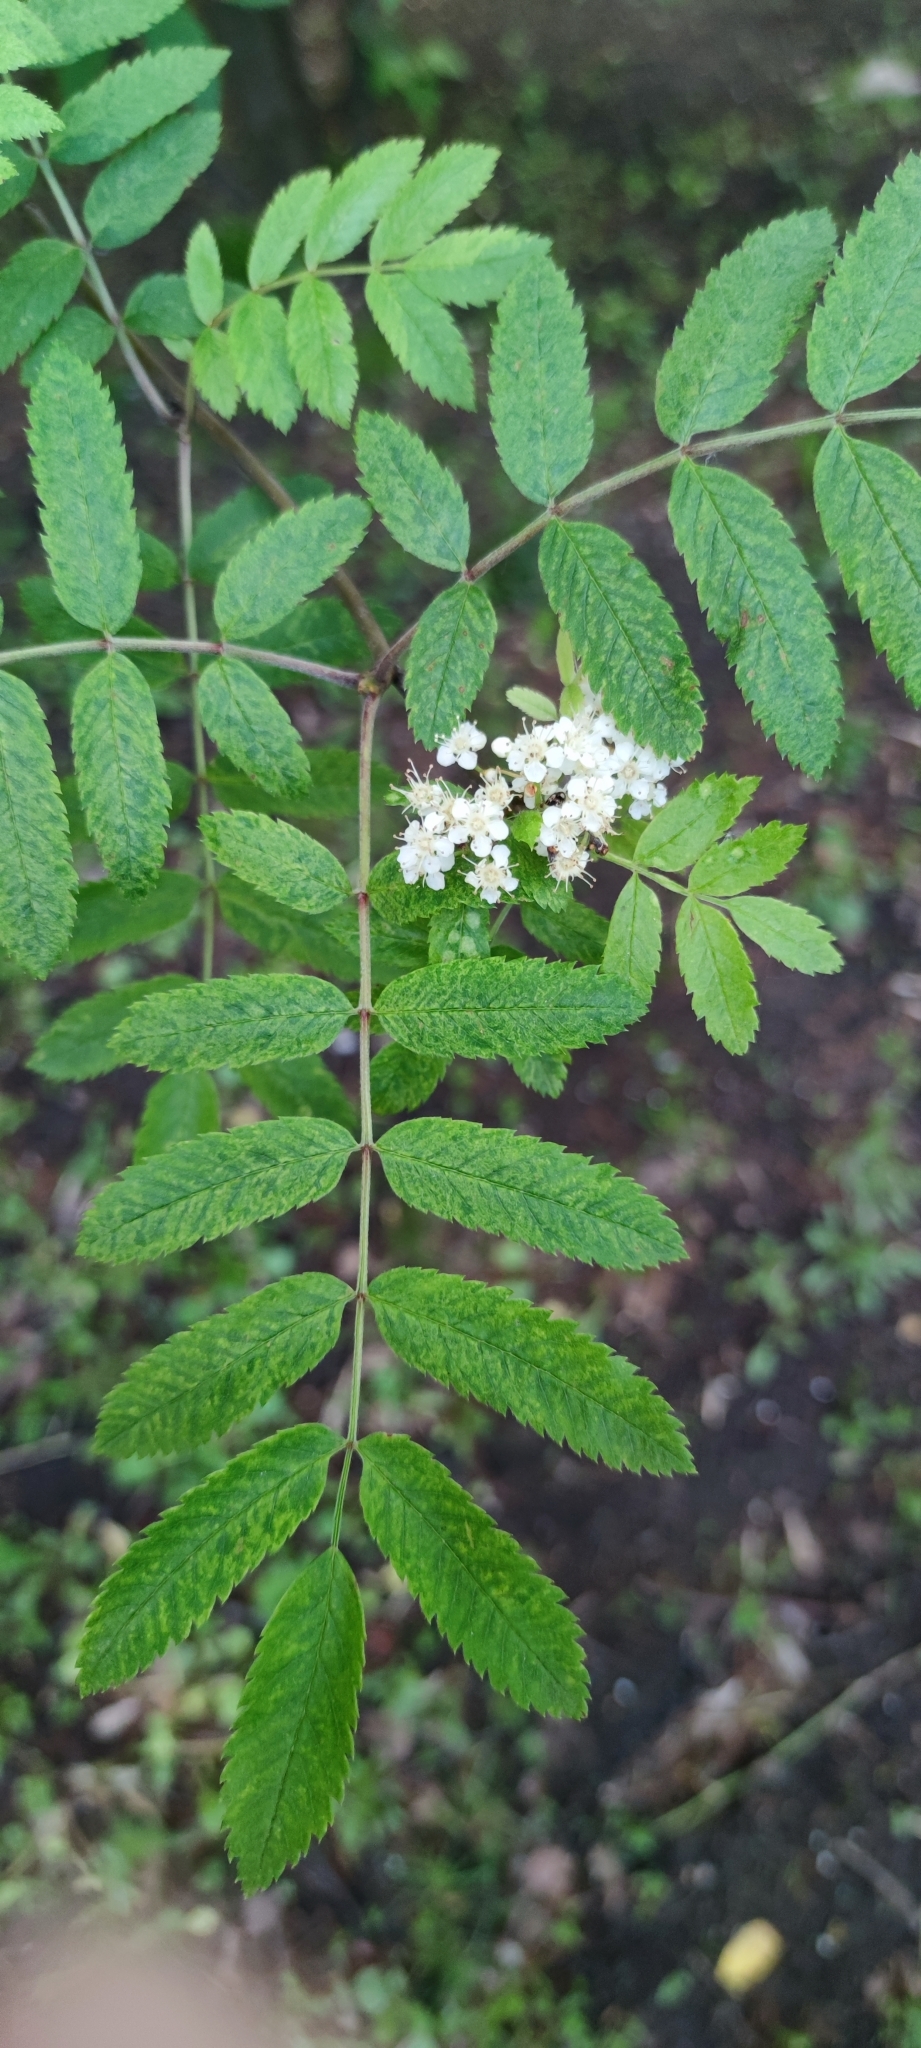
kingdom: Plantae
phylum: Tracheophyta
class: Magnoliopsida
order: Rosales
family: Rosaceae
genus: Sorbus
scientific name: Sorbus aucuparia
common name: Rowan
